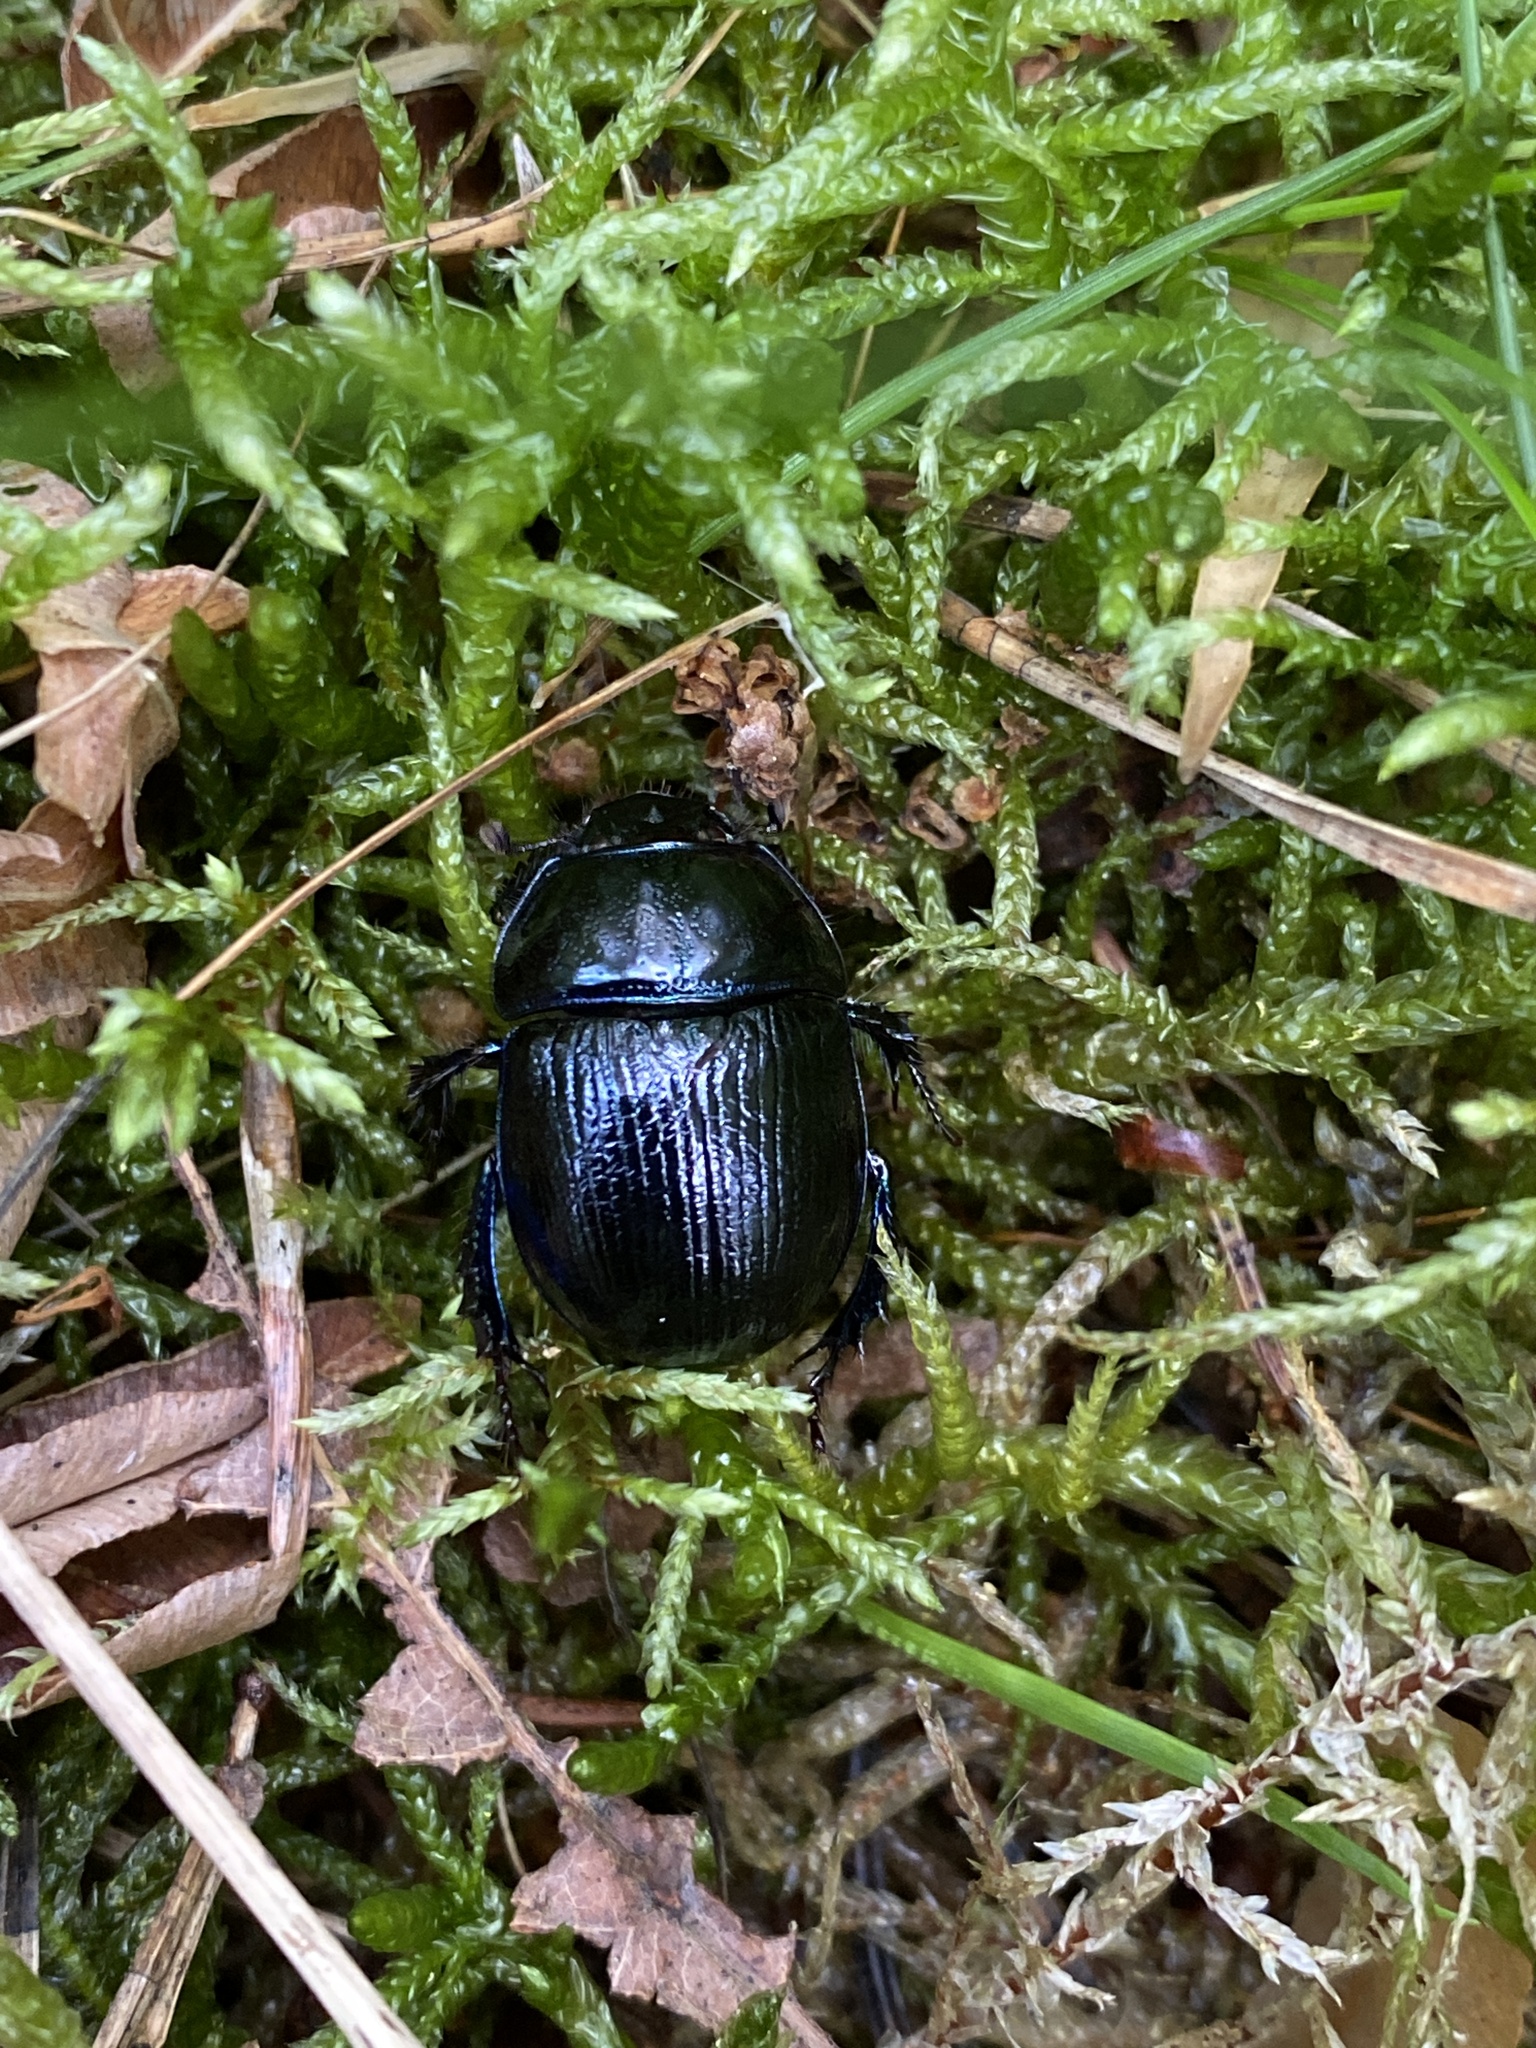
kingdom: Animalia
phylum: Arthropoda
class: Insecta
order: Coleoptera
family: Geotrupidae
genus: Anoplotrupes
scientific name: Anoplotrupes stercorosus
